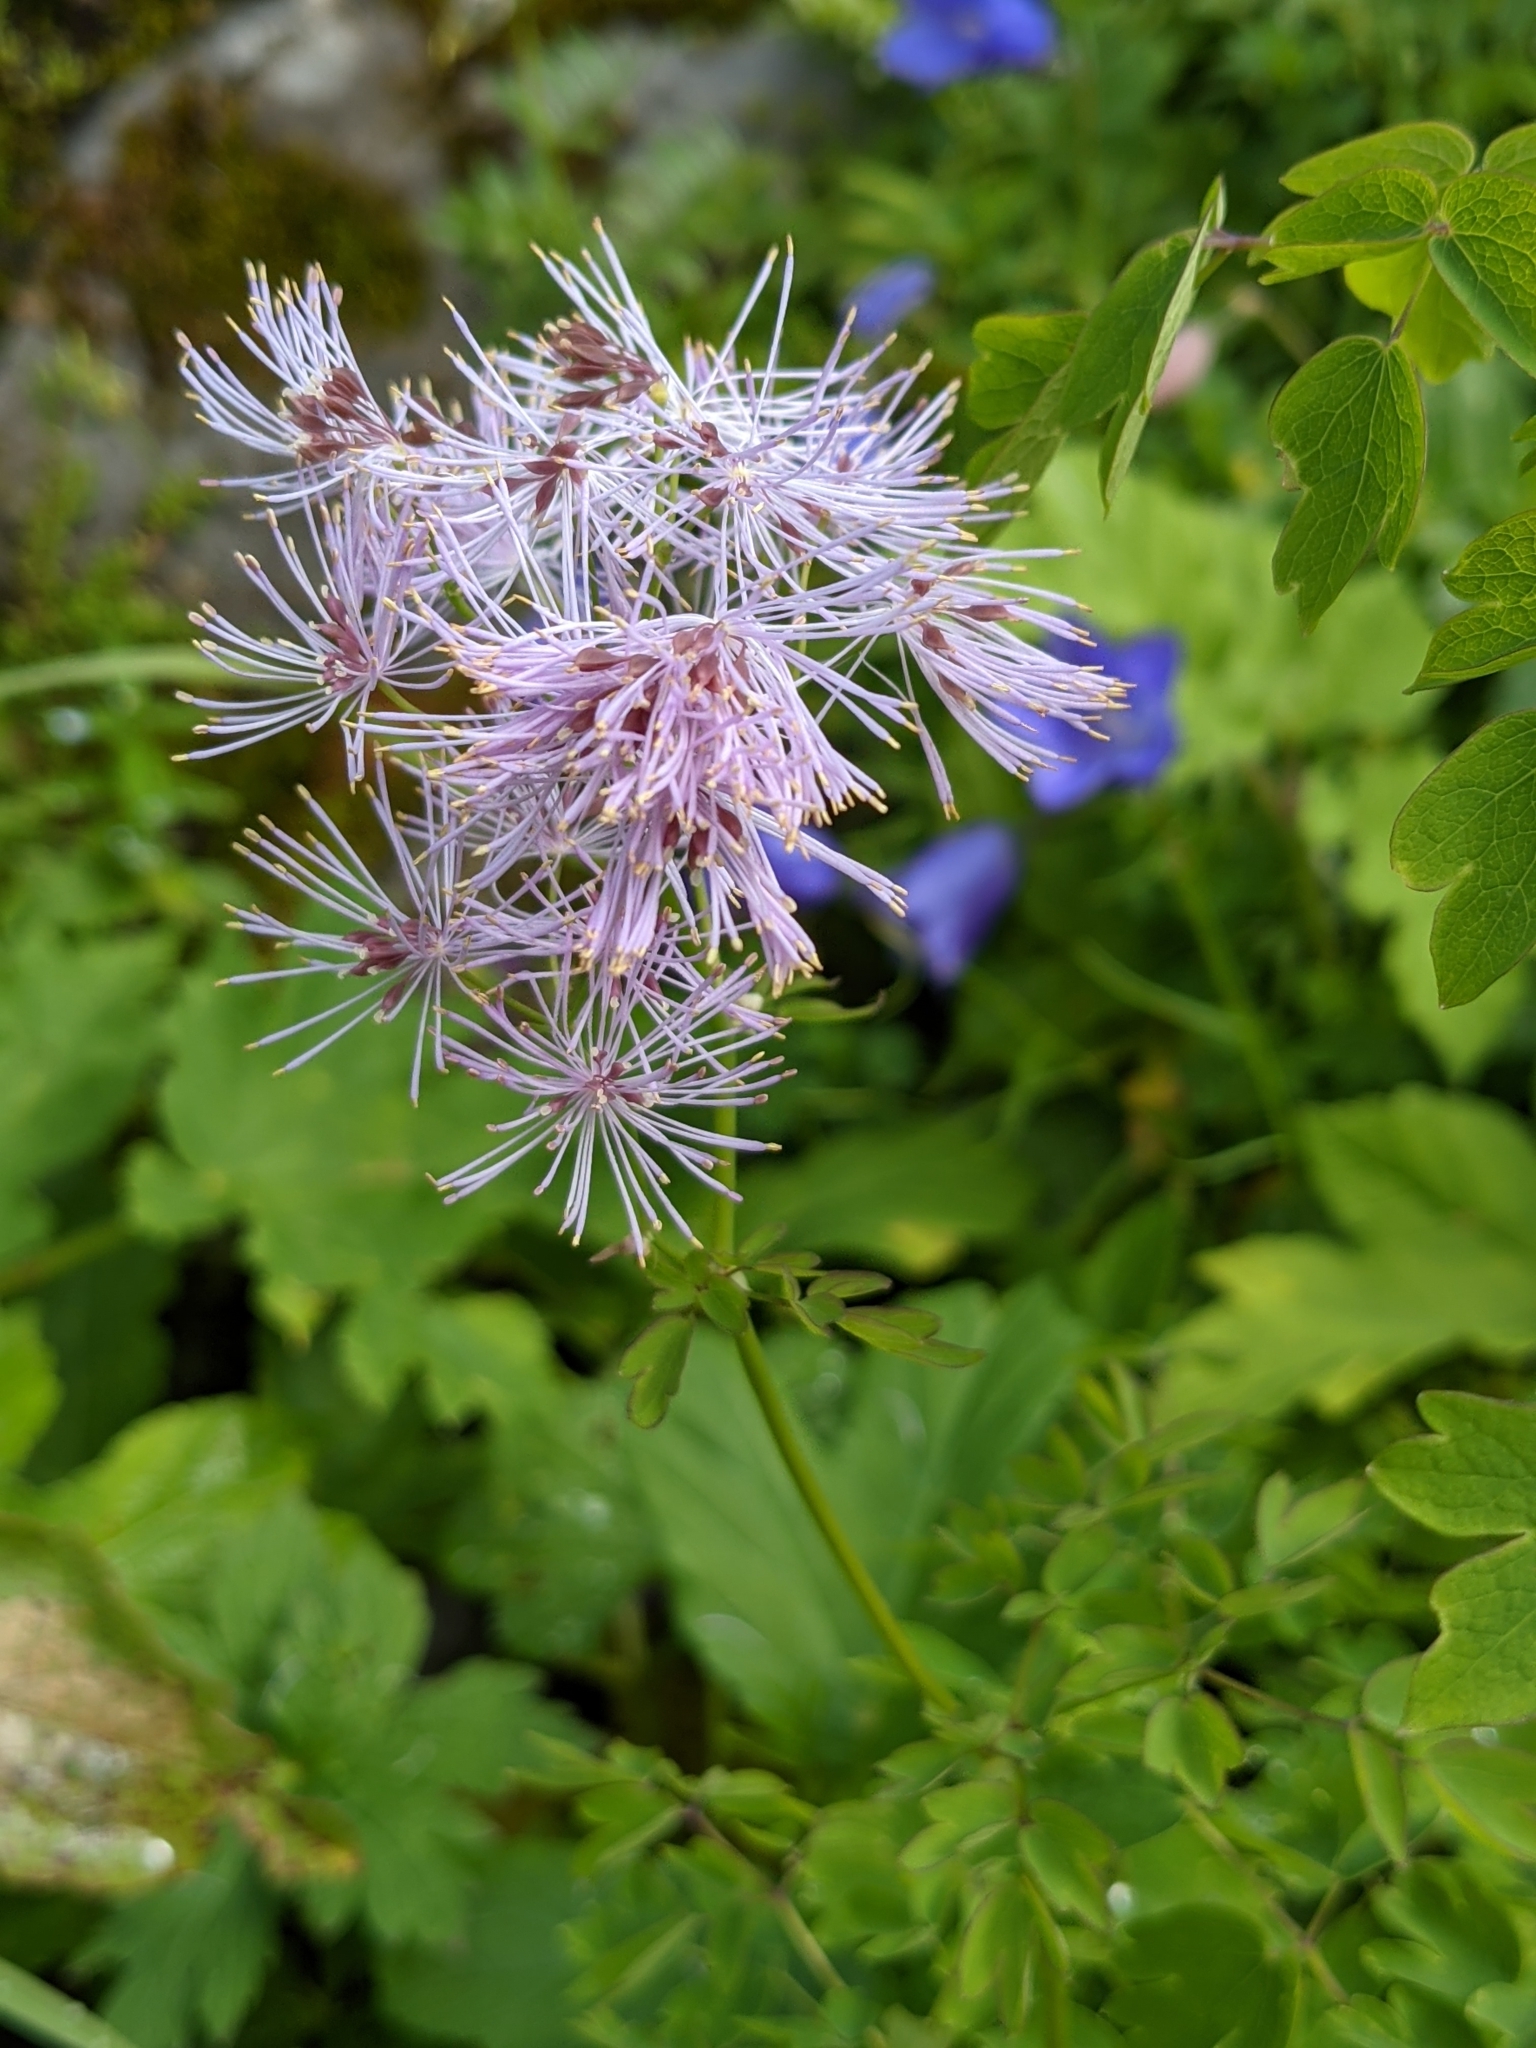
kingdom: Plantae
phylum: Tracheophyta
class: Magnoliopsida
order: Ranunculales
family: Ranunculaceae
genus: Thalictrum
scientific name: Thalictrum aquilegiifolium
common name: French meadow-rue
